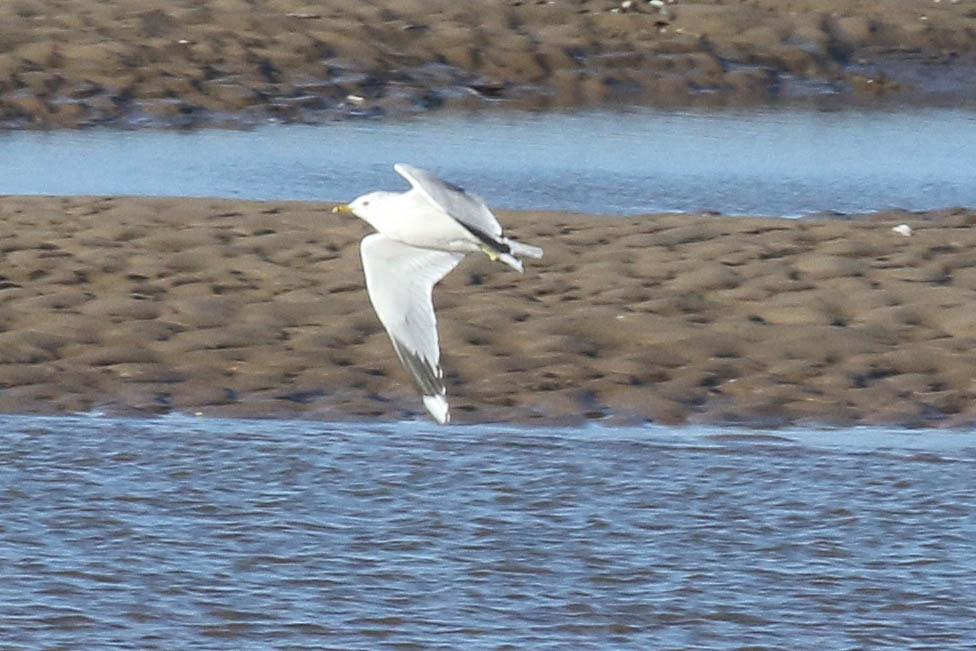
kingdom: Animalia
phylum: Chordata
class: Aves
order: Charadriiformes
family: Laridae
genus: Larus
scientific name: Larus canus
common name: Mew gull
